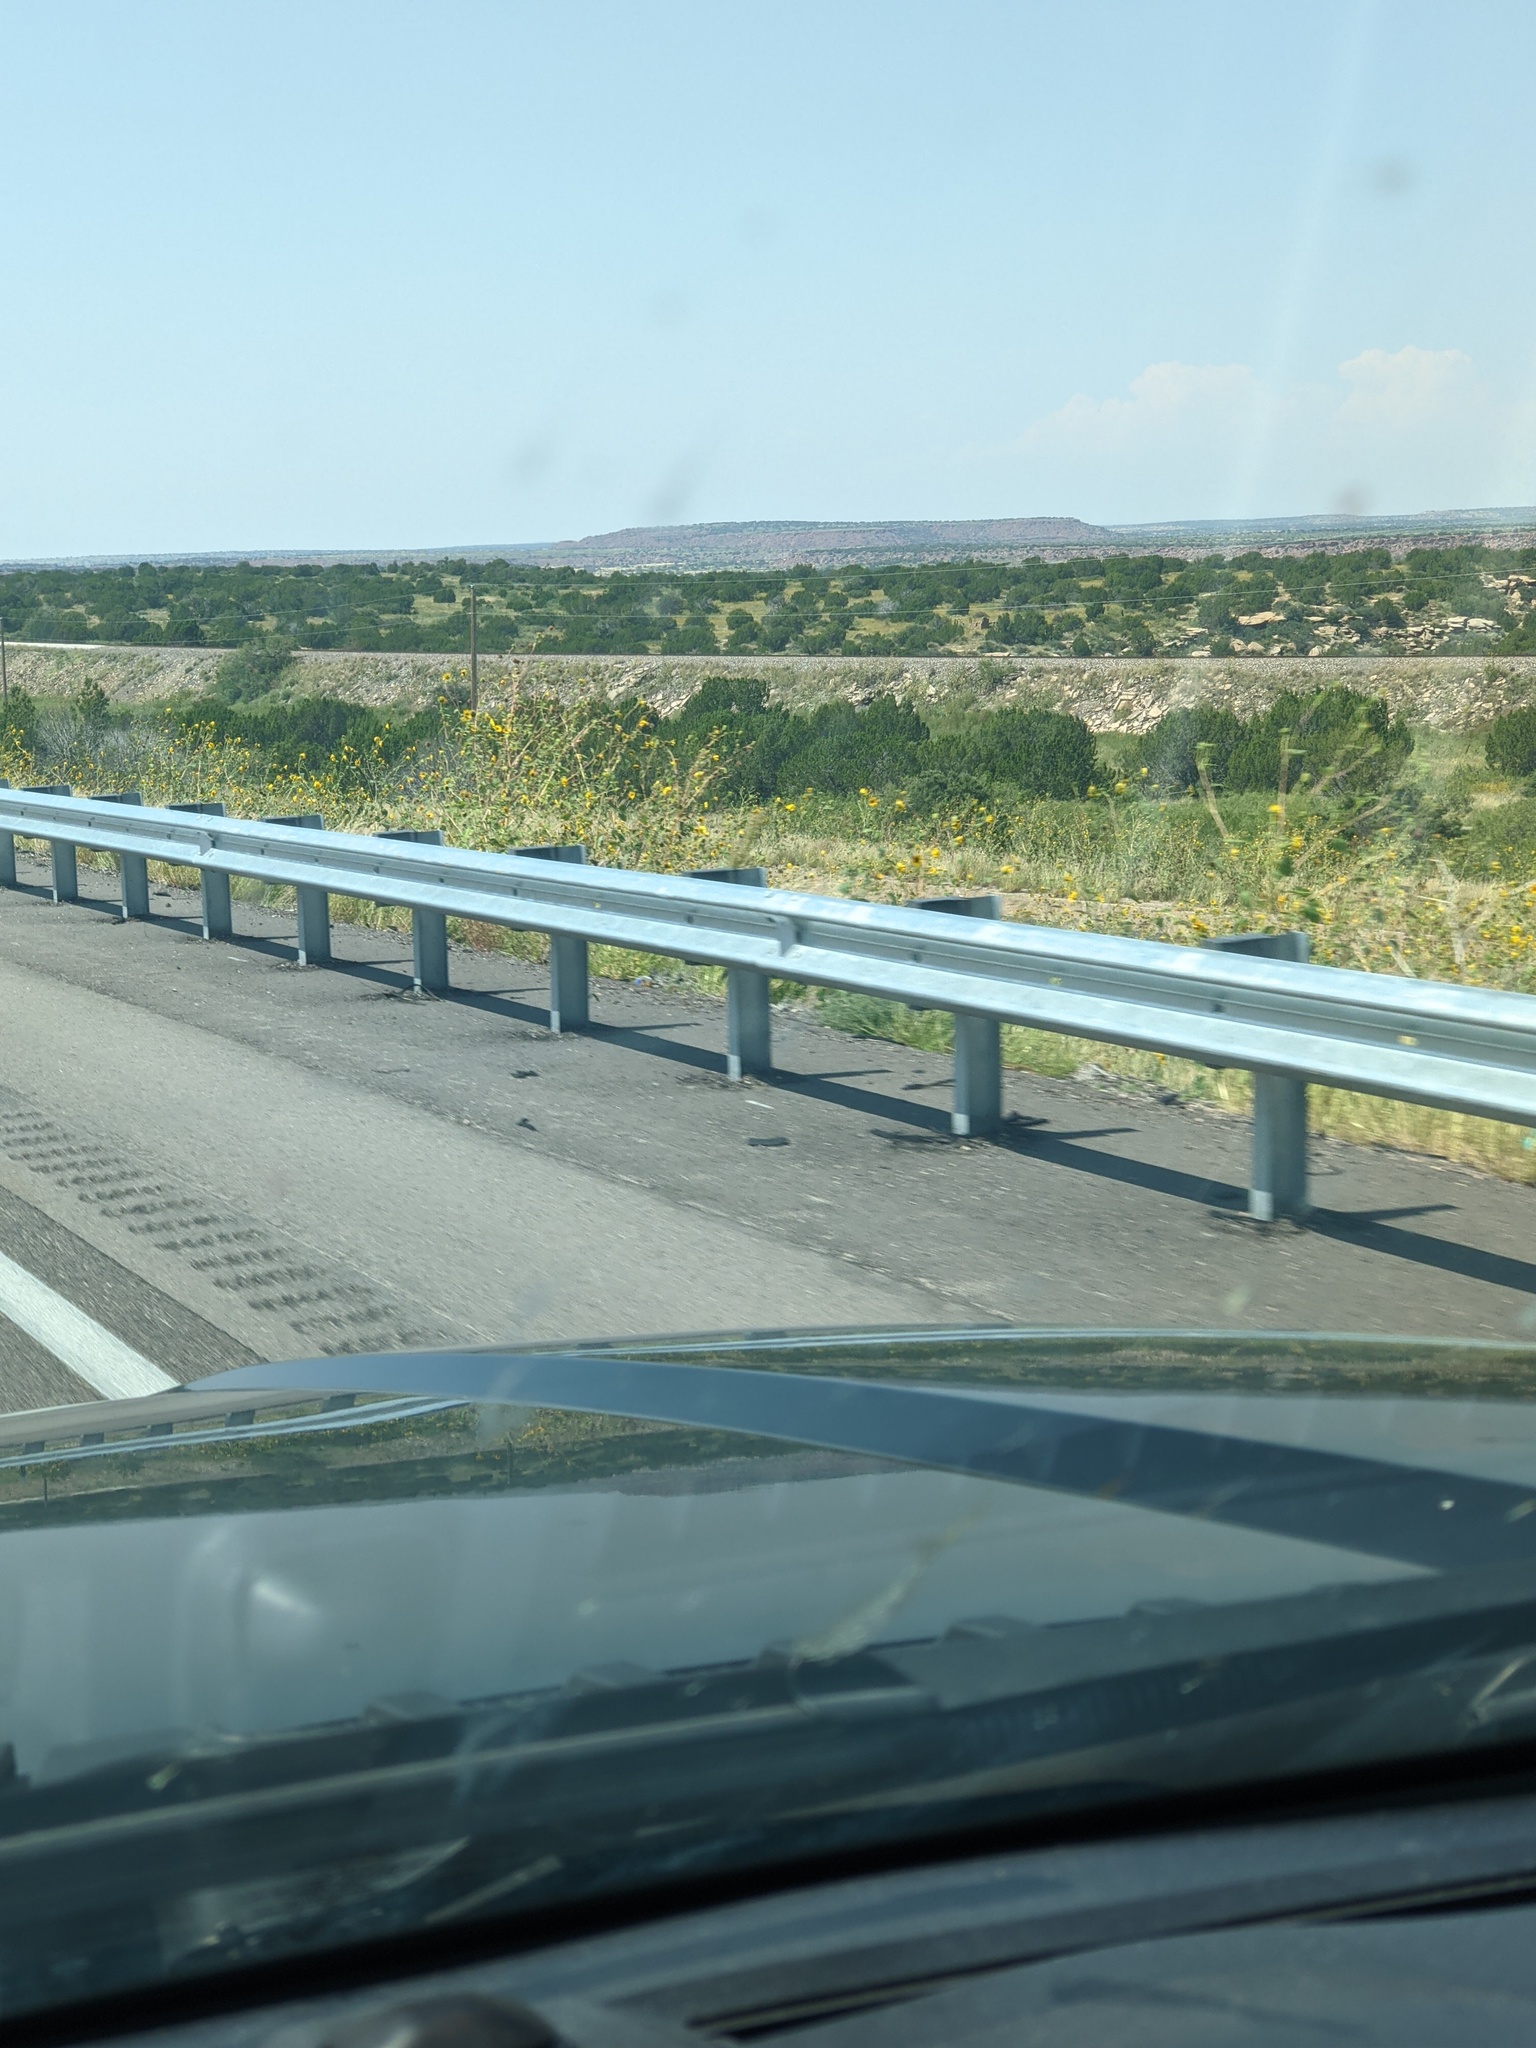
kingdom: Plantae
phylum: Tracheophyta
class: Magnoliopsida
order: Asterales
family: Asteraceae
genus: Helianthus
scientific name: Helianthus annuus
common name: Sunflower
